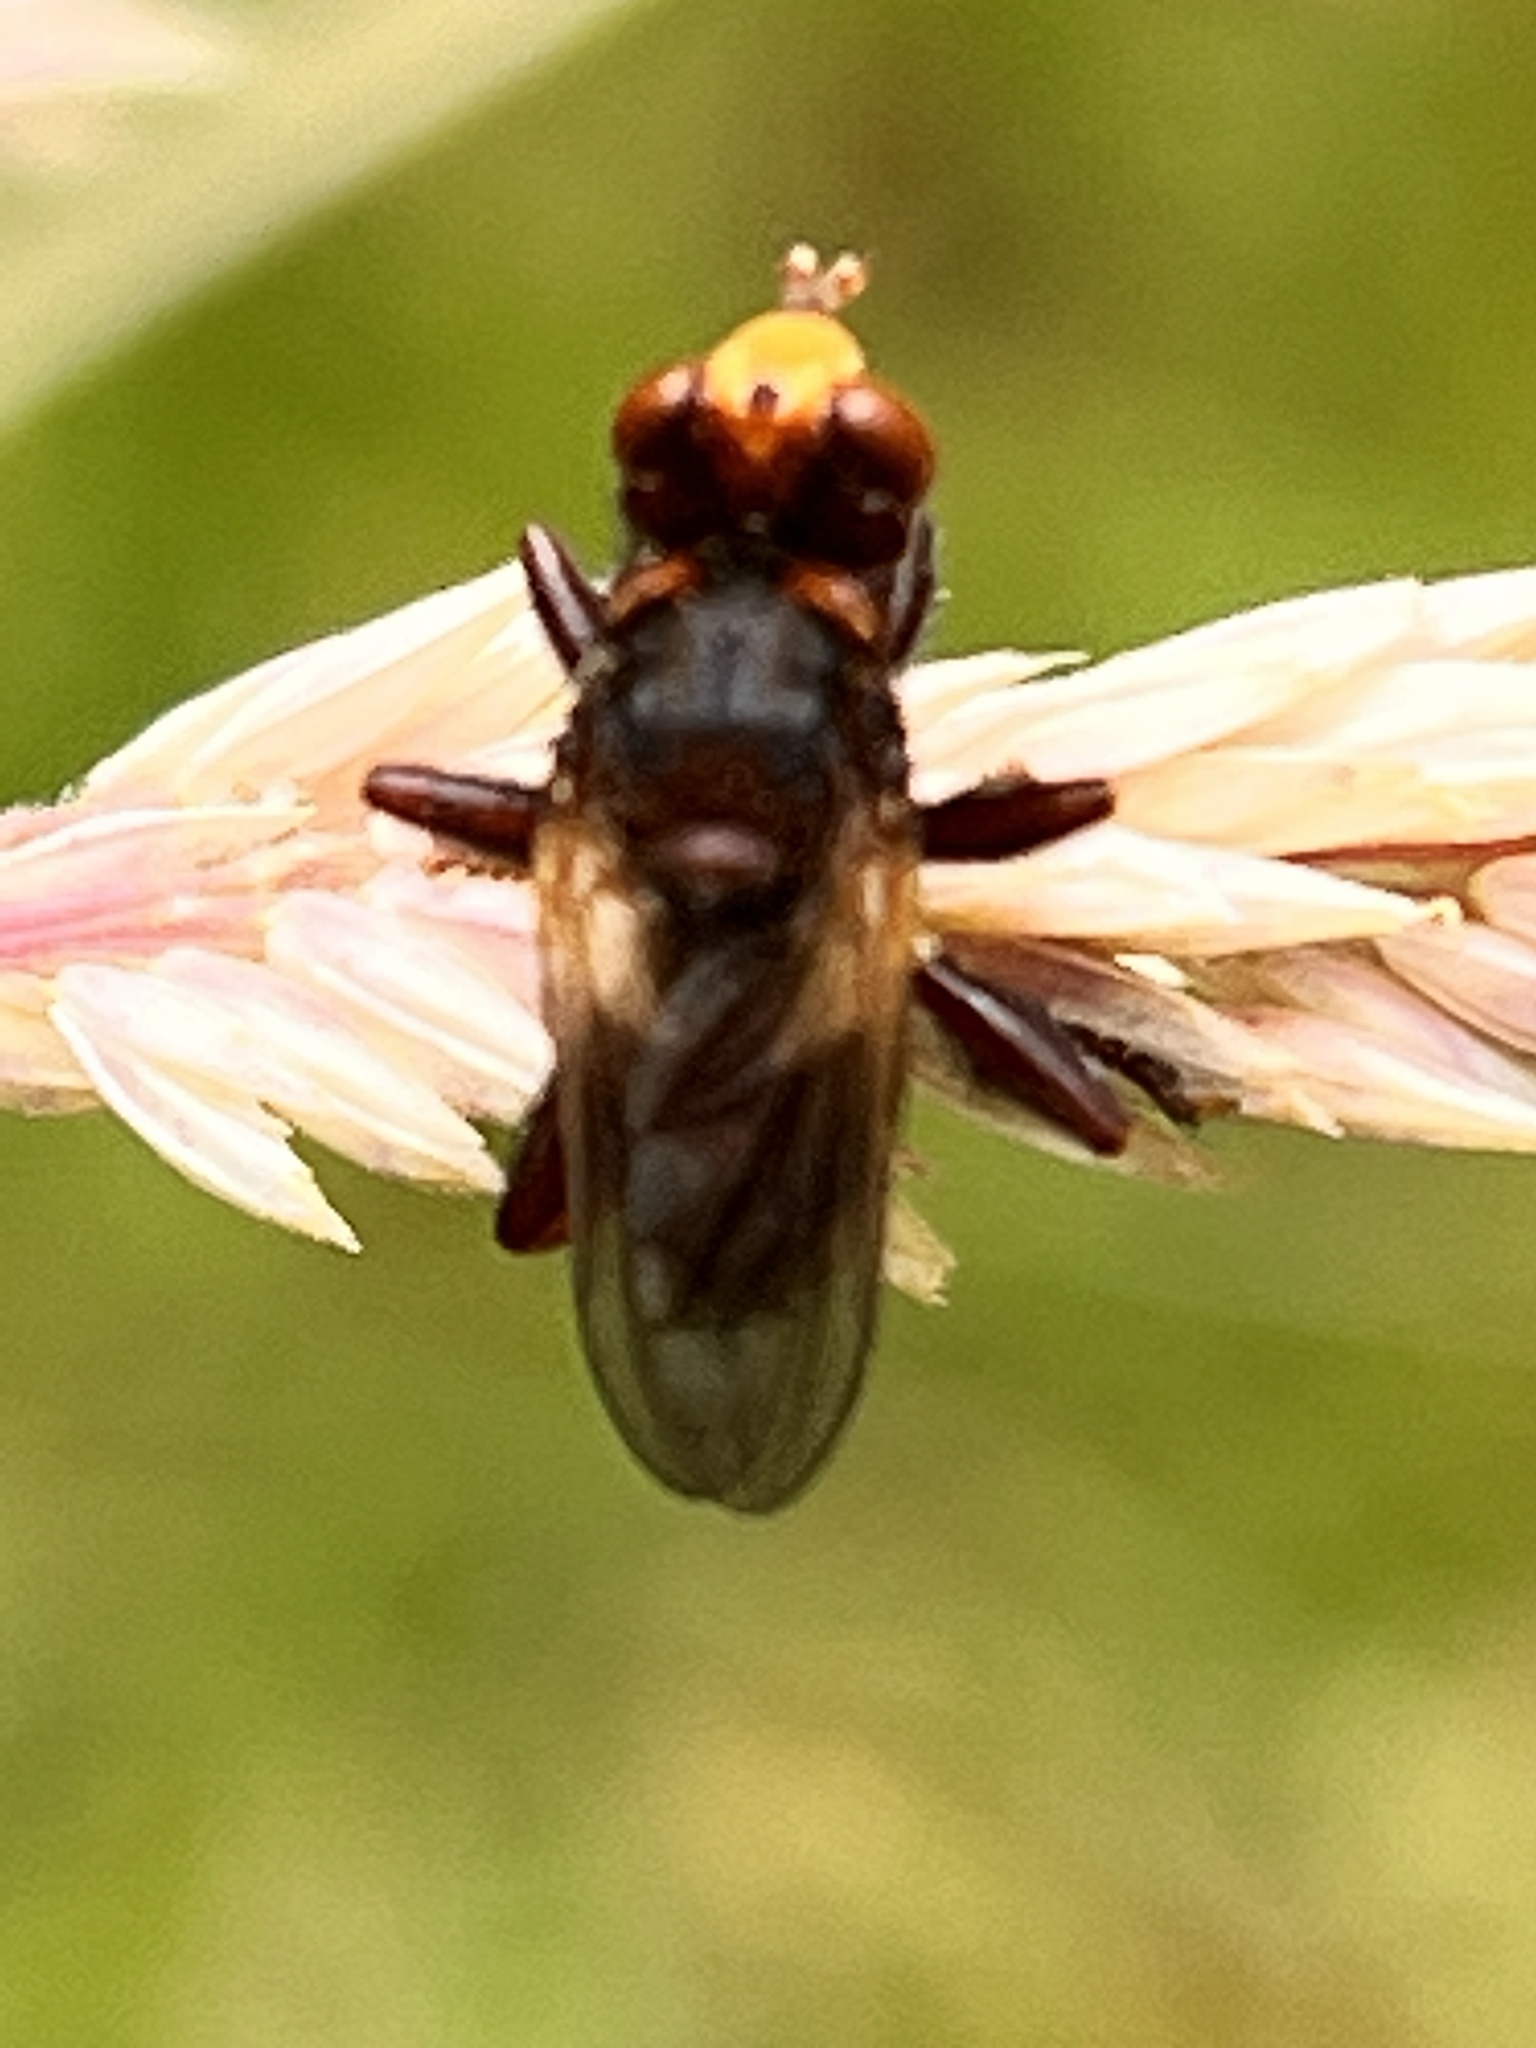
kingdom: Animalia
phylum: Arthropoda
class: Insecta
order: Diptera
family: Conopidae
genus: Sicus
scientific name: Sicus ferrugineus
